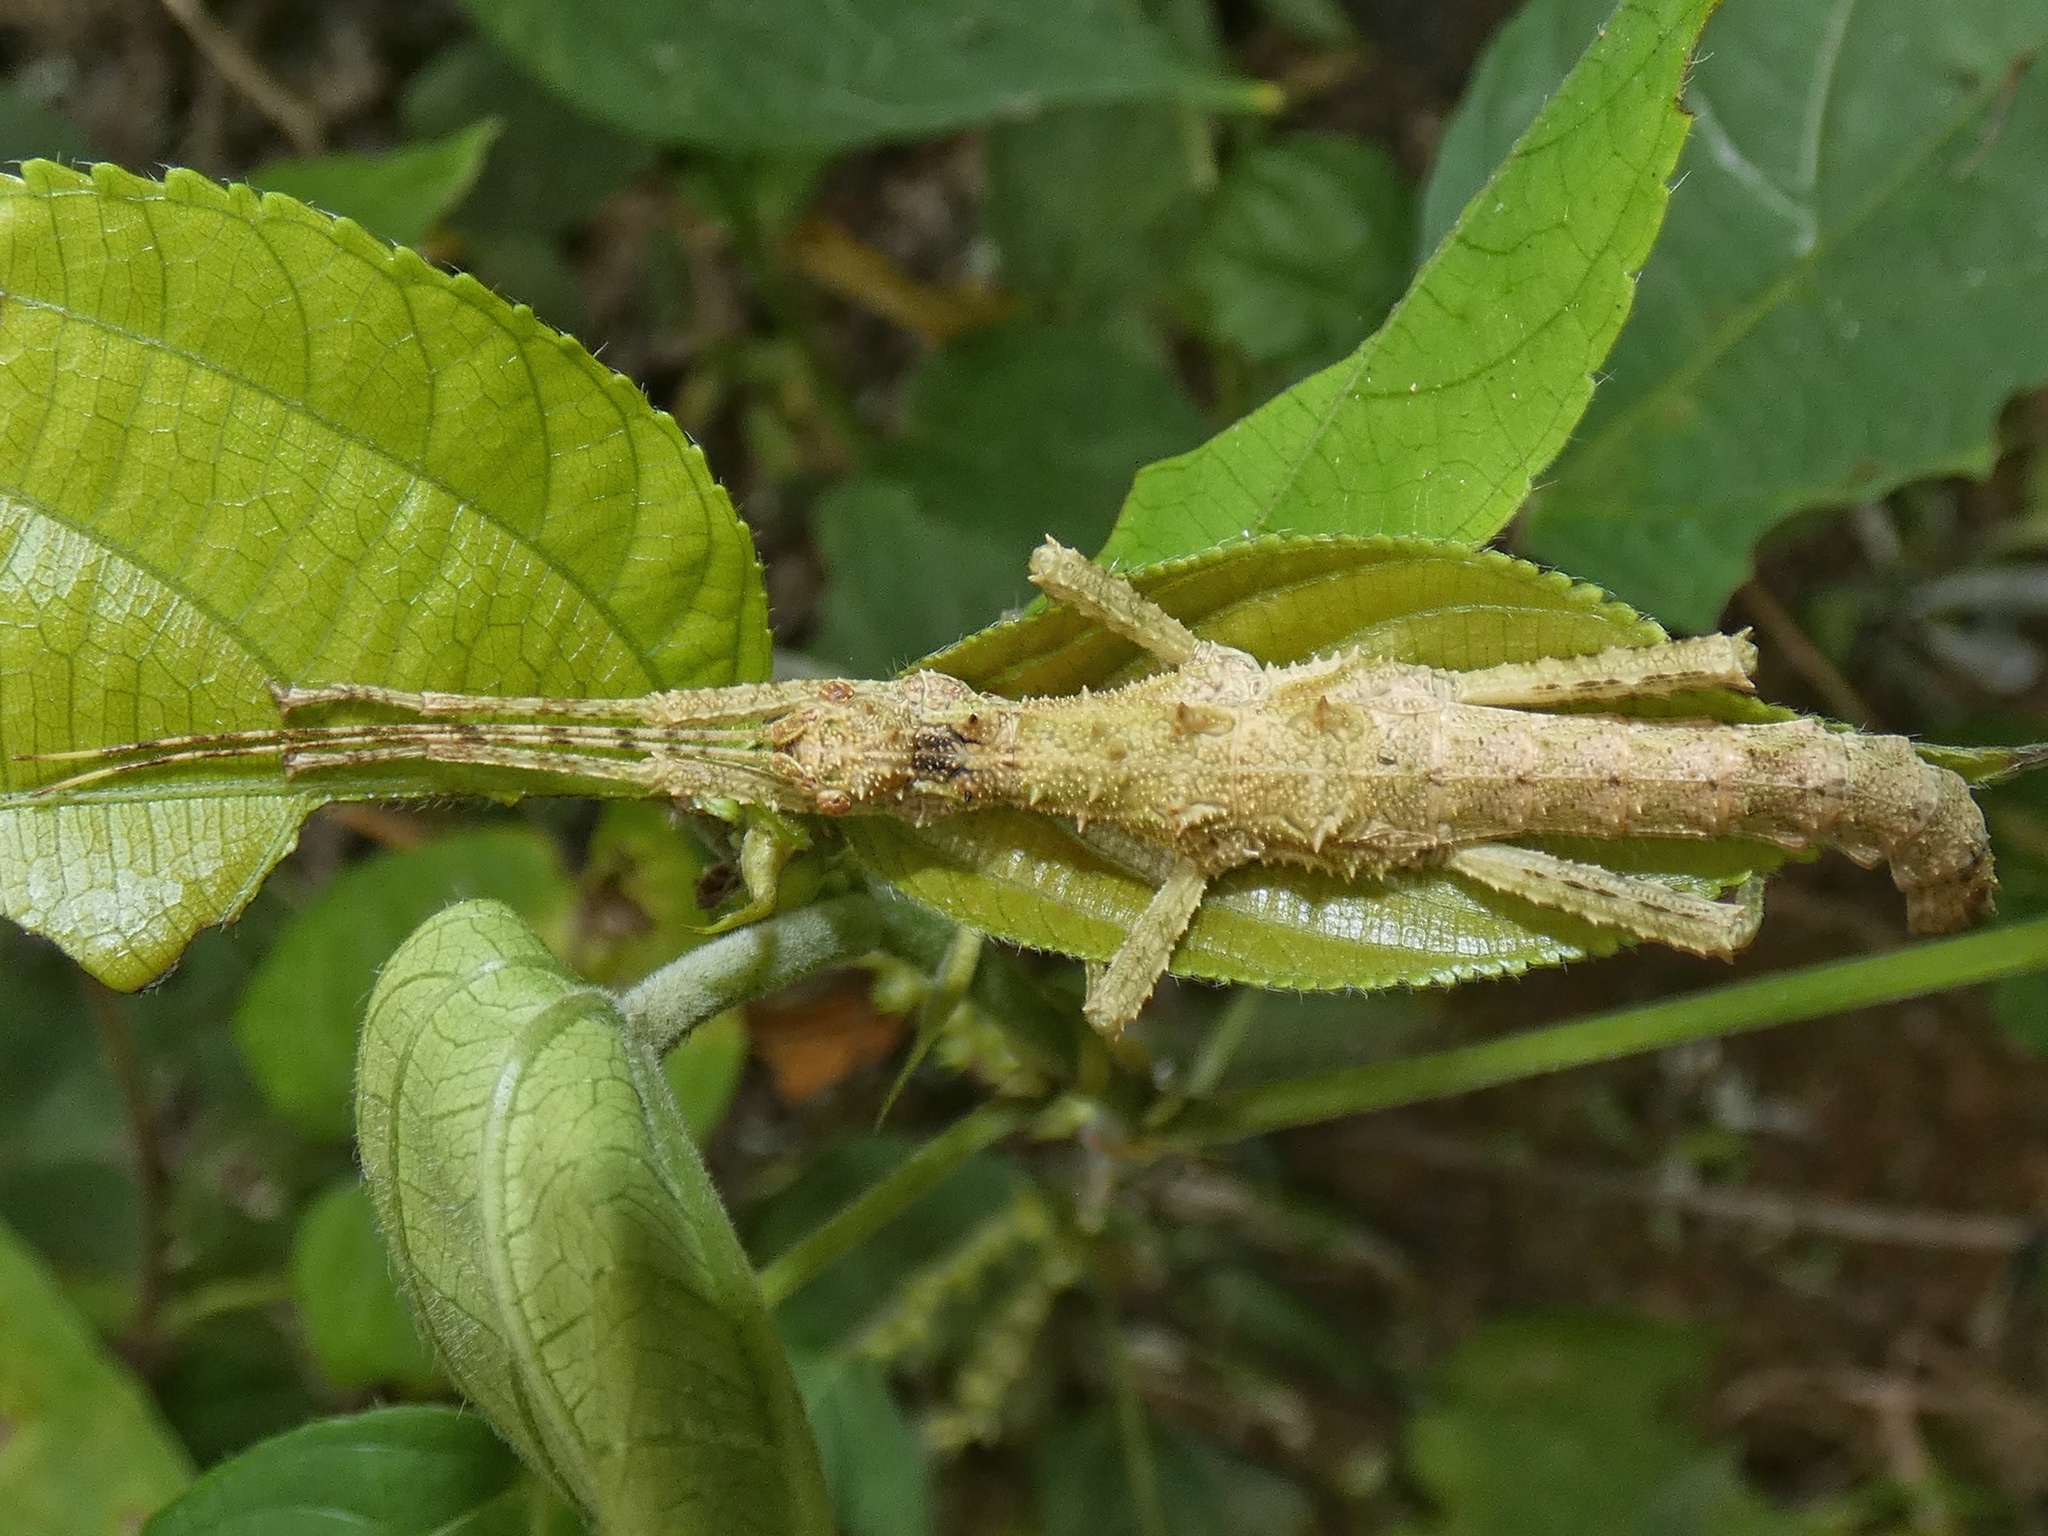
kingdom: Animalia
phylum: Arthropoda
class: Insecta
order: Phasmida
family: Heteropterygidae
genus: Obrimus
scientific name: Obrimus bicolanus
